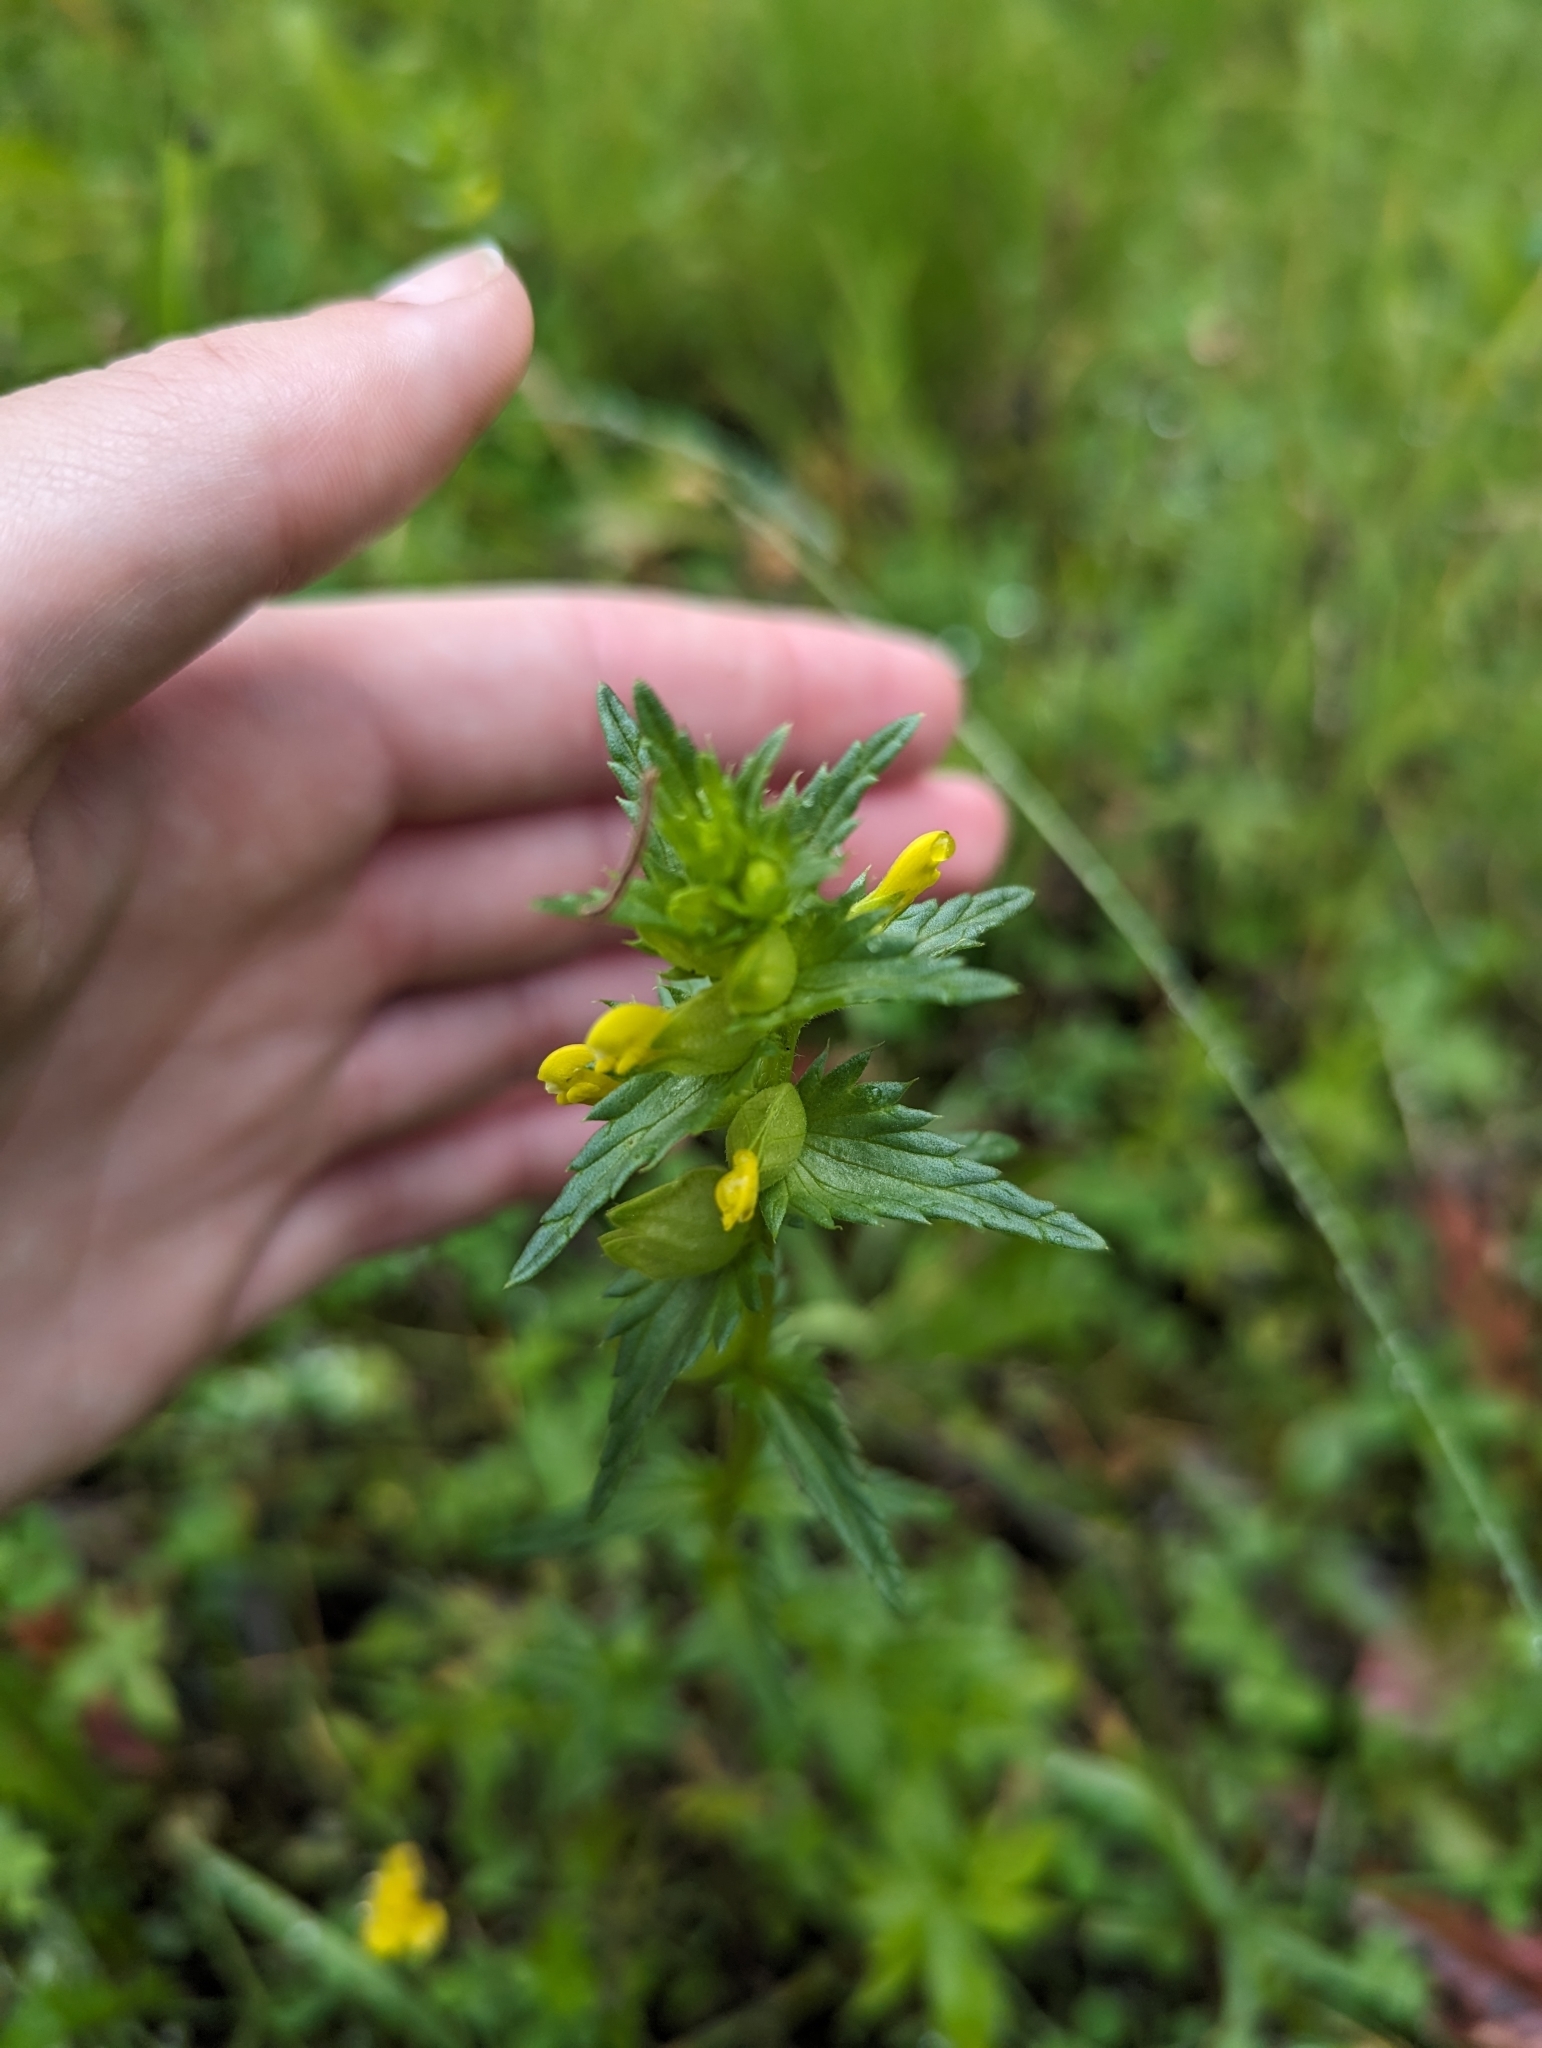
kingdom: Plantae
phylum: Tracheophyta
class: Magnoliopsida
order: Lamiales
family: Orobanchaceae
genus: Rhinanthus
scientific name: Rhinanthus minor
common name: Yellow-rattle
